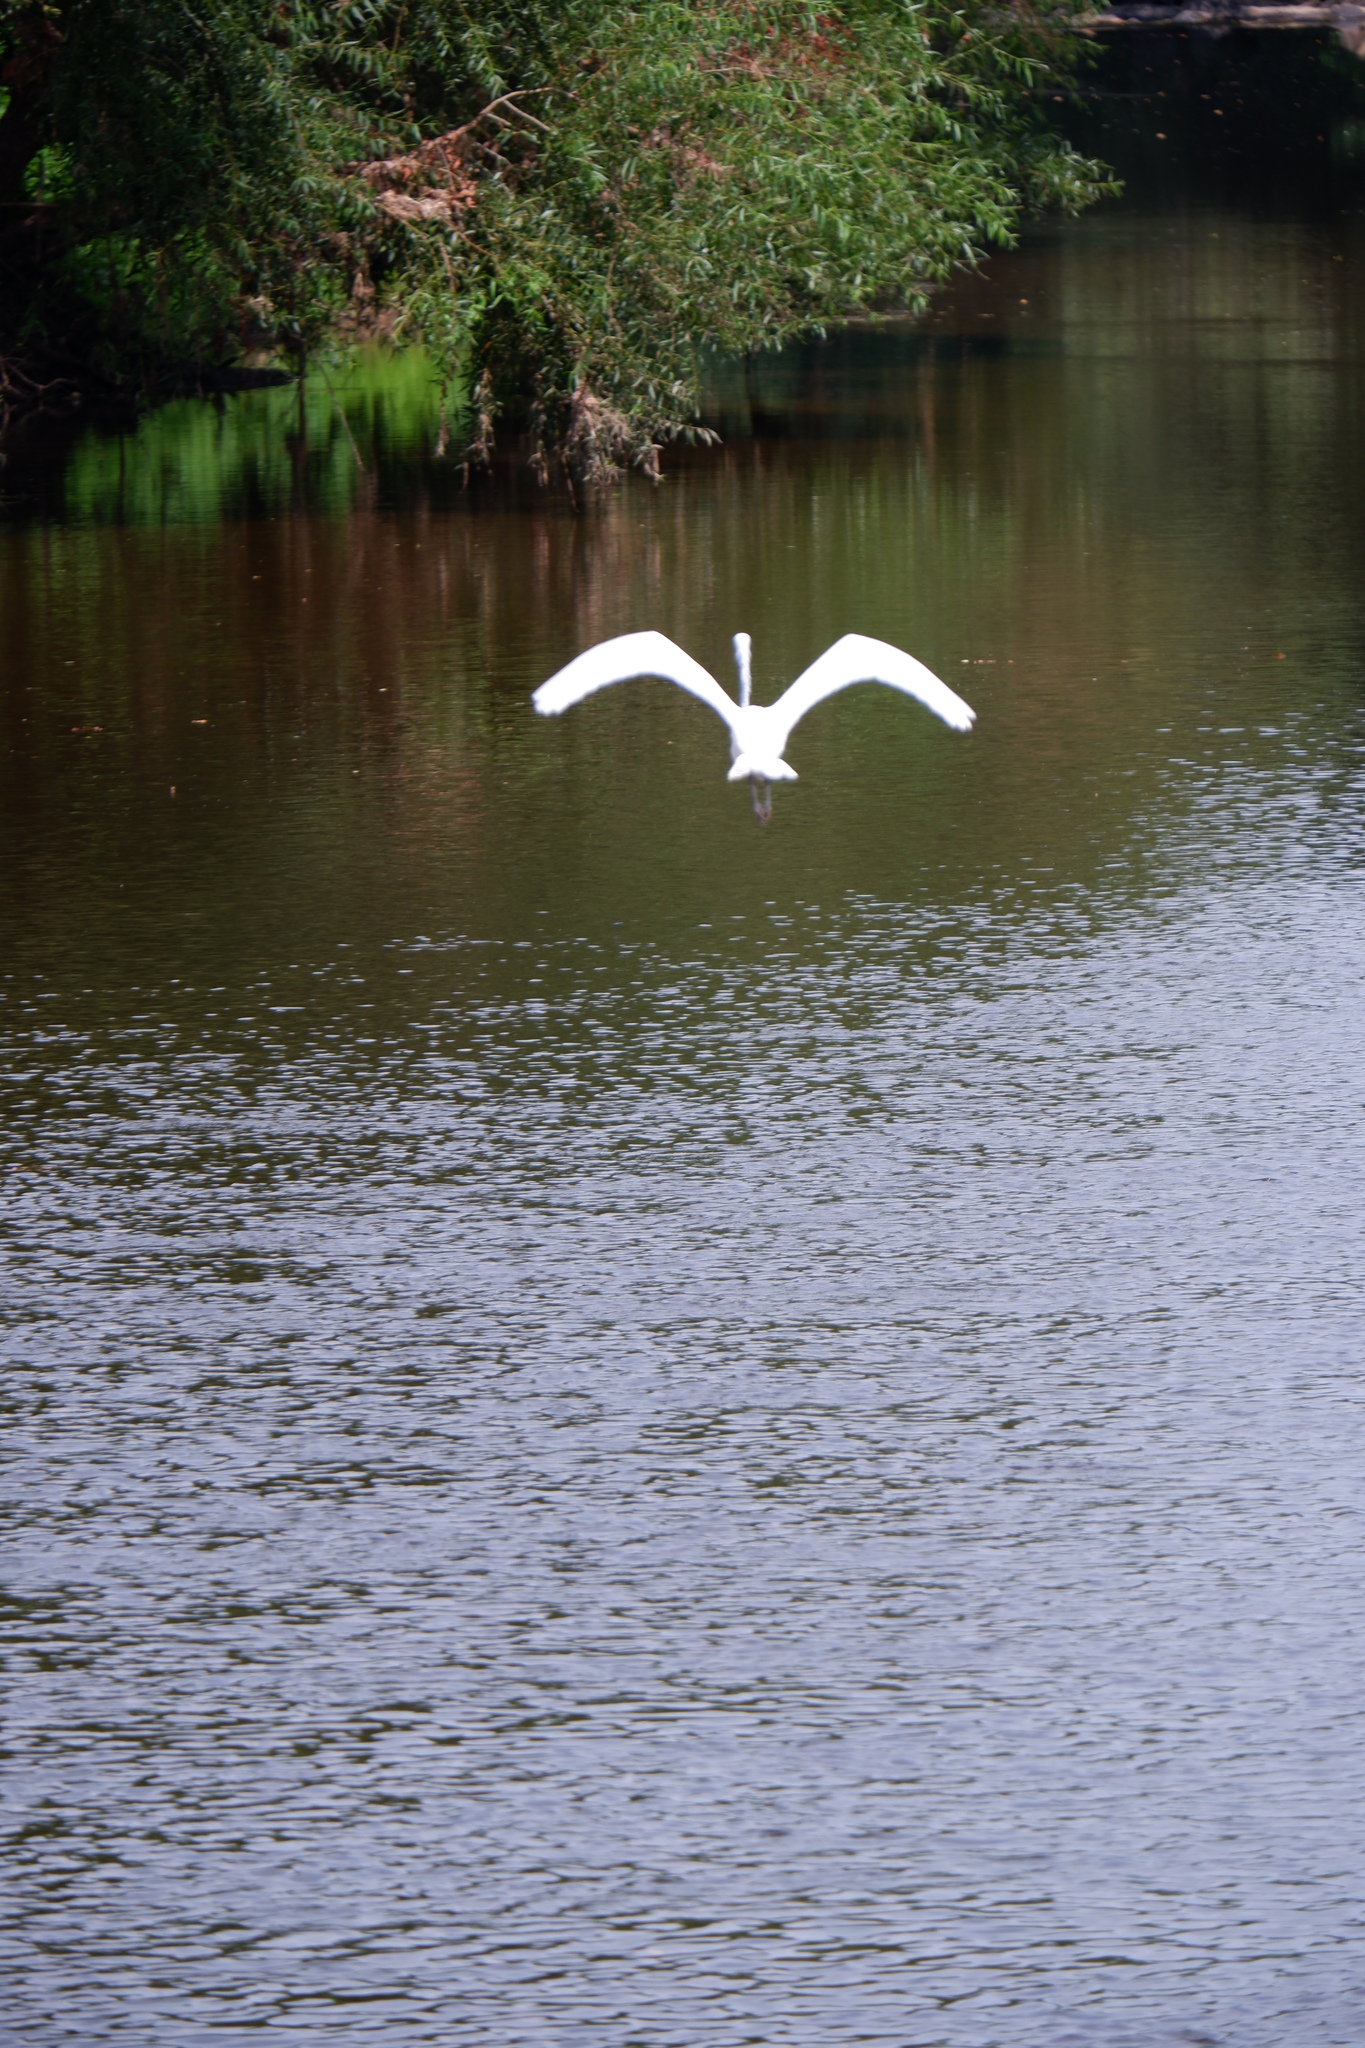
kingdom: Animalia
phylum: Chordata
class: Aves
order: Pelecaniformes
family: Ardeidae
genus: Ardea
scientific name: Ardea alba
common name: Great egret
